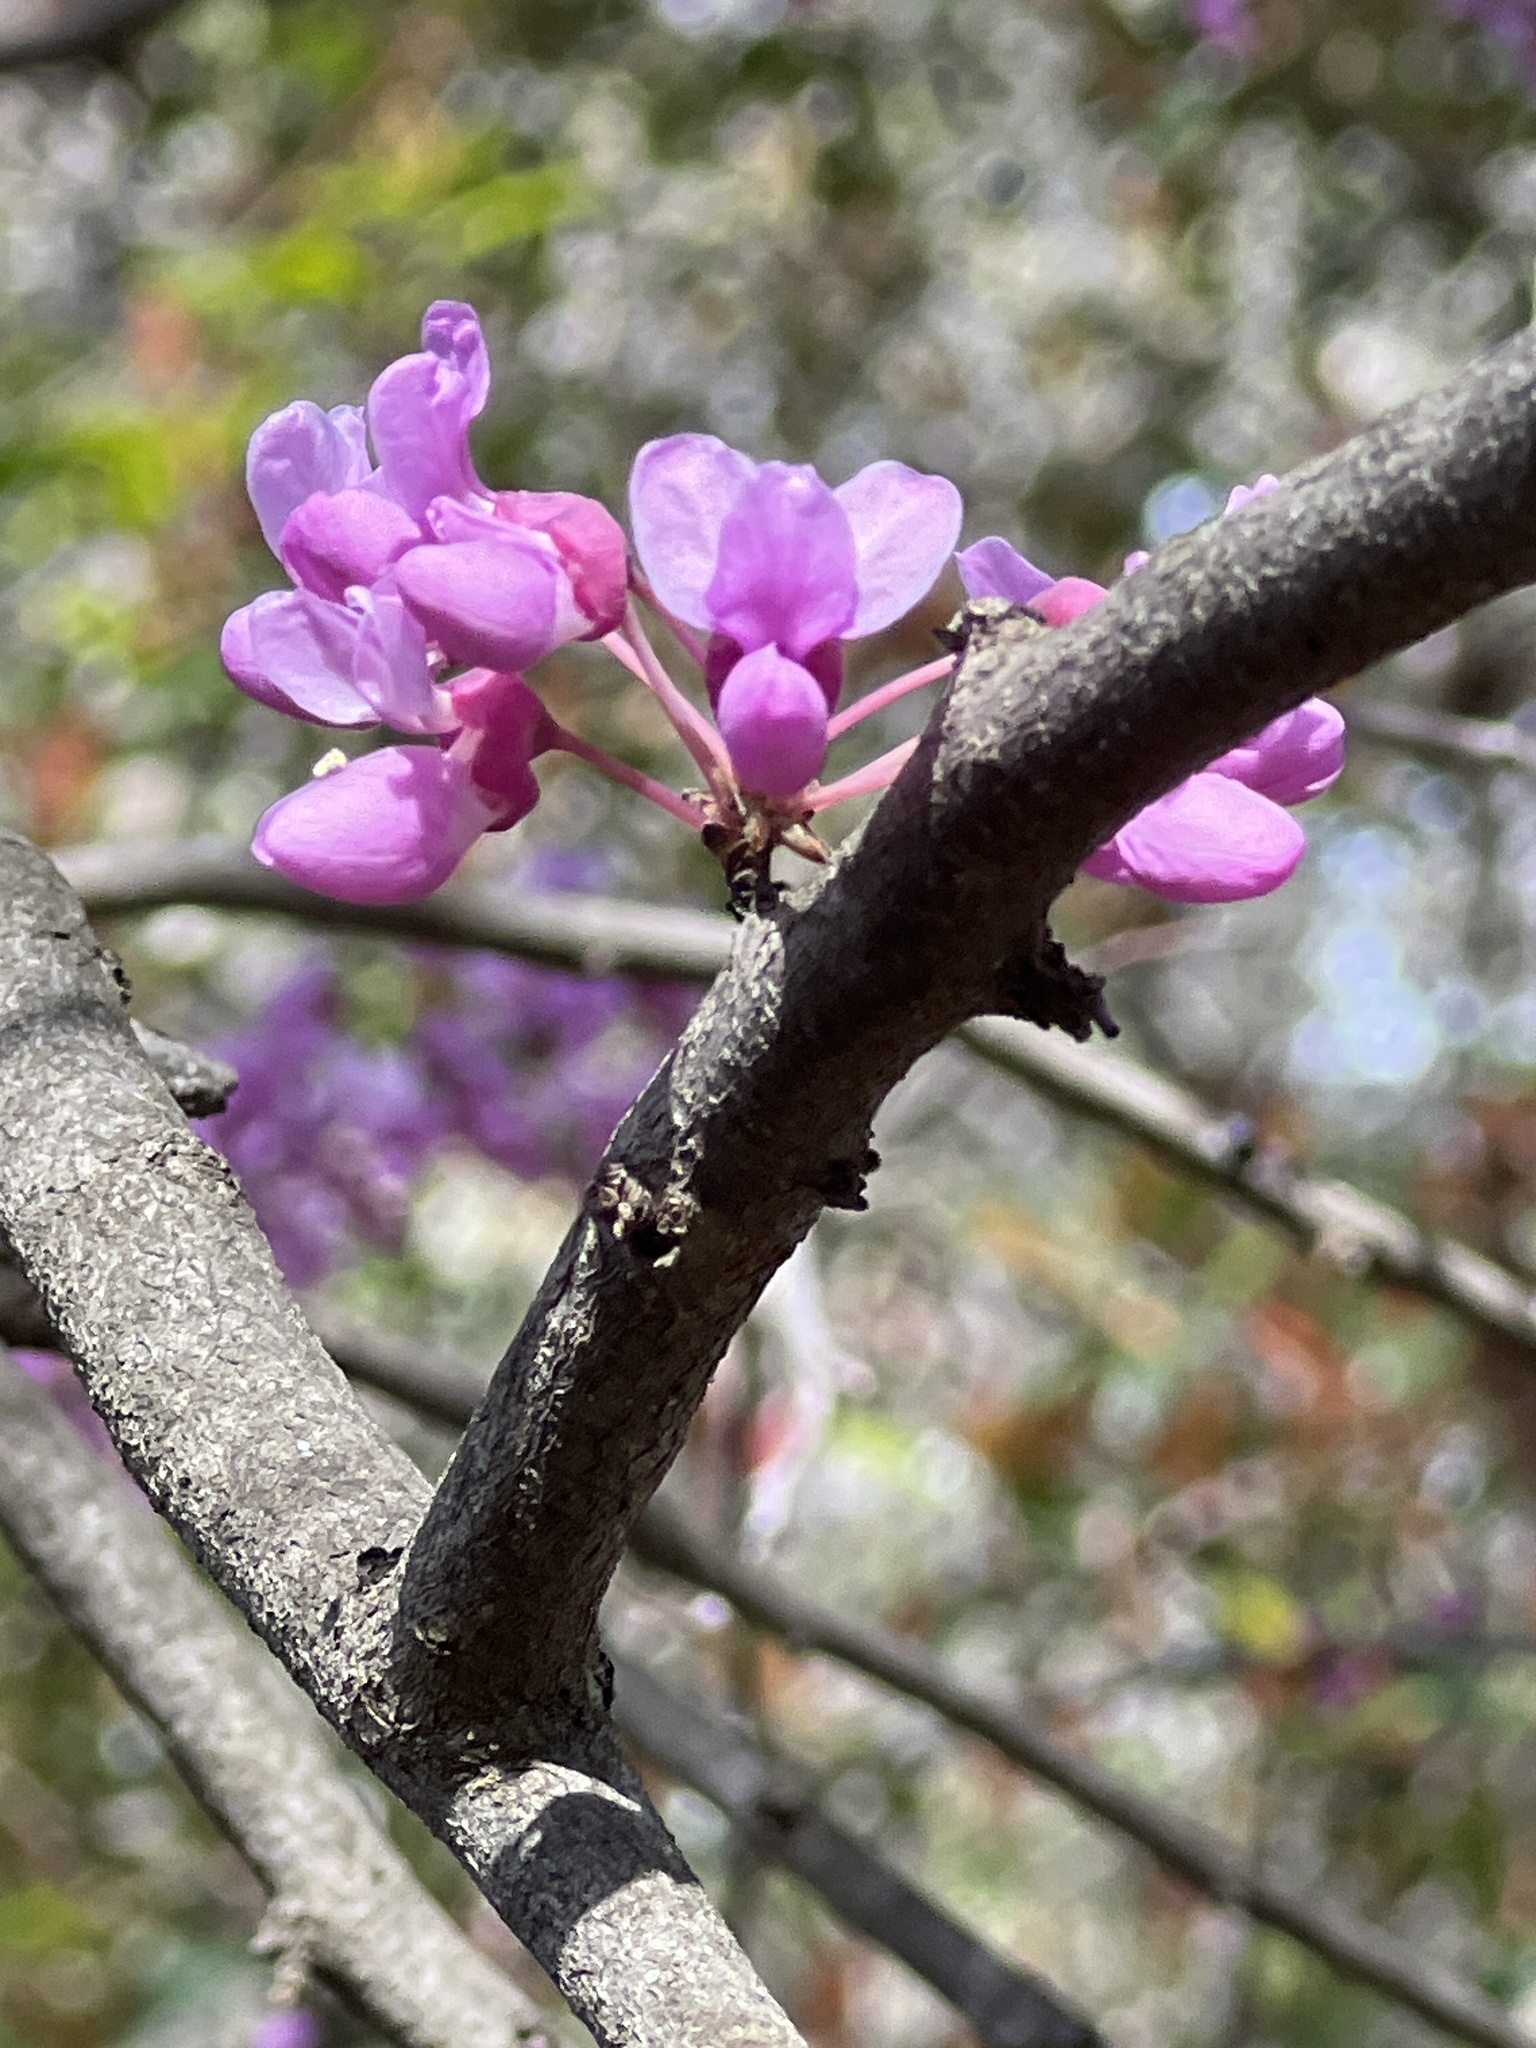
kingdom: Plantae
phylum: Tracheophyta
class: Magnoliopsida
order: Fabales
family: Fabaceae
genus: Cercis
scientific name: Cercis canadensis
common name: Eastern redbud
